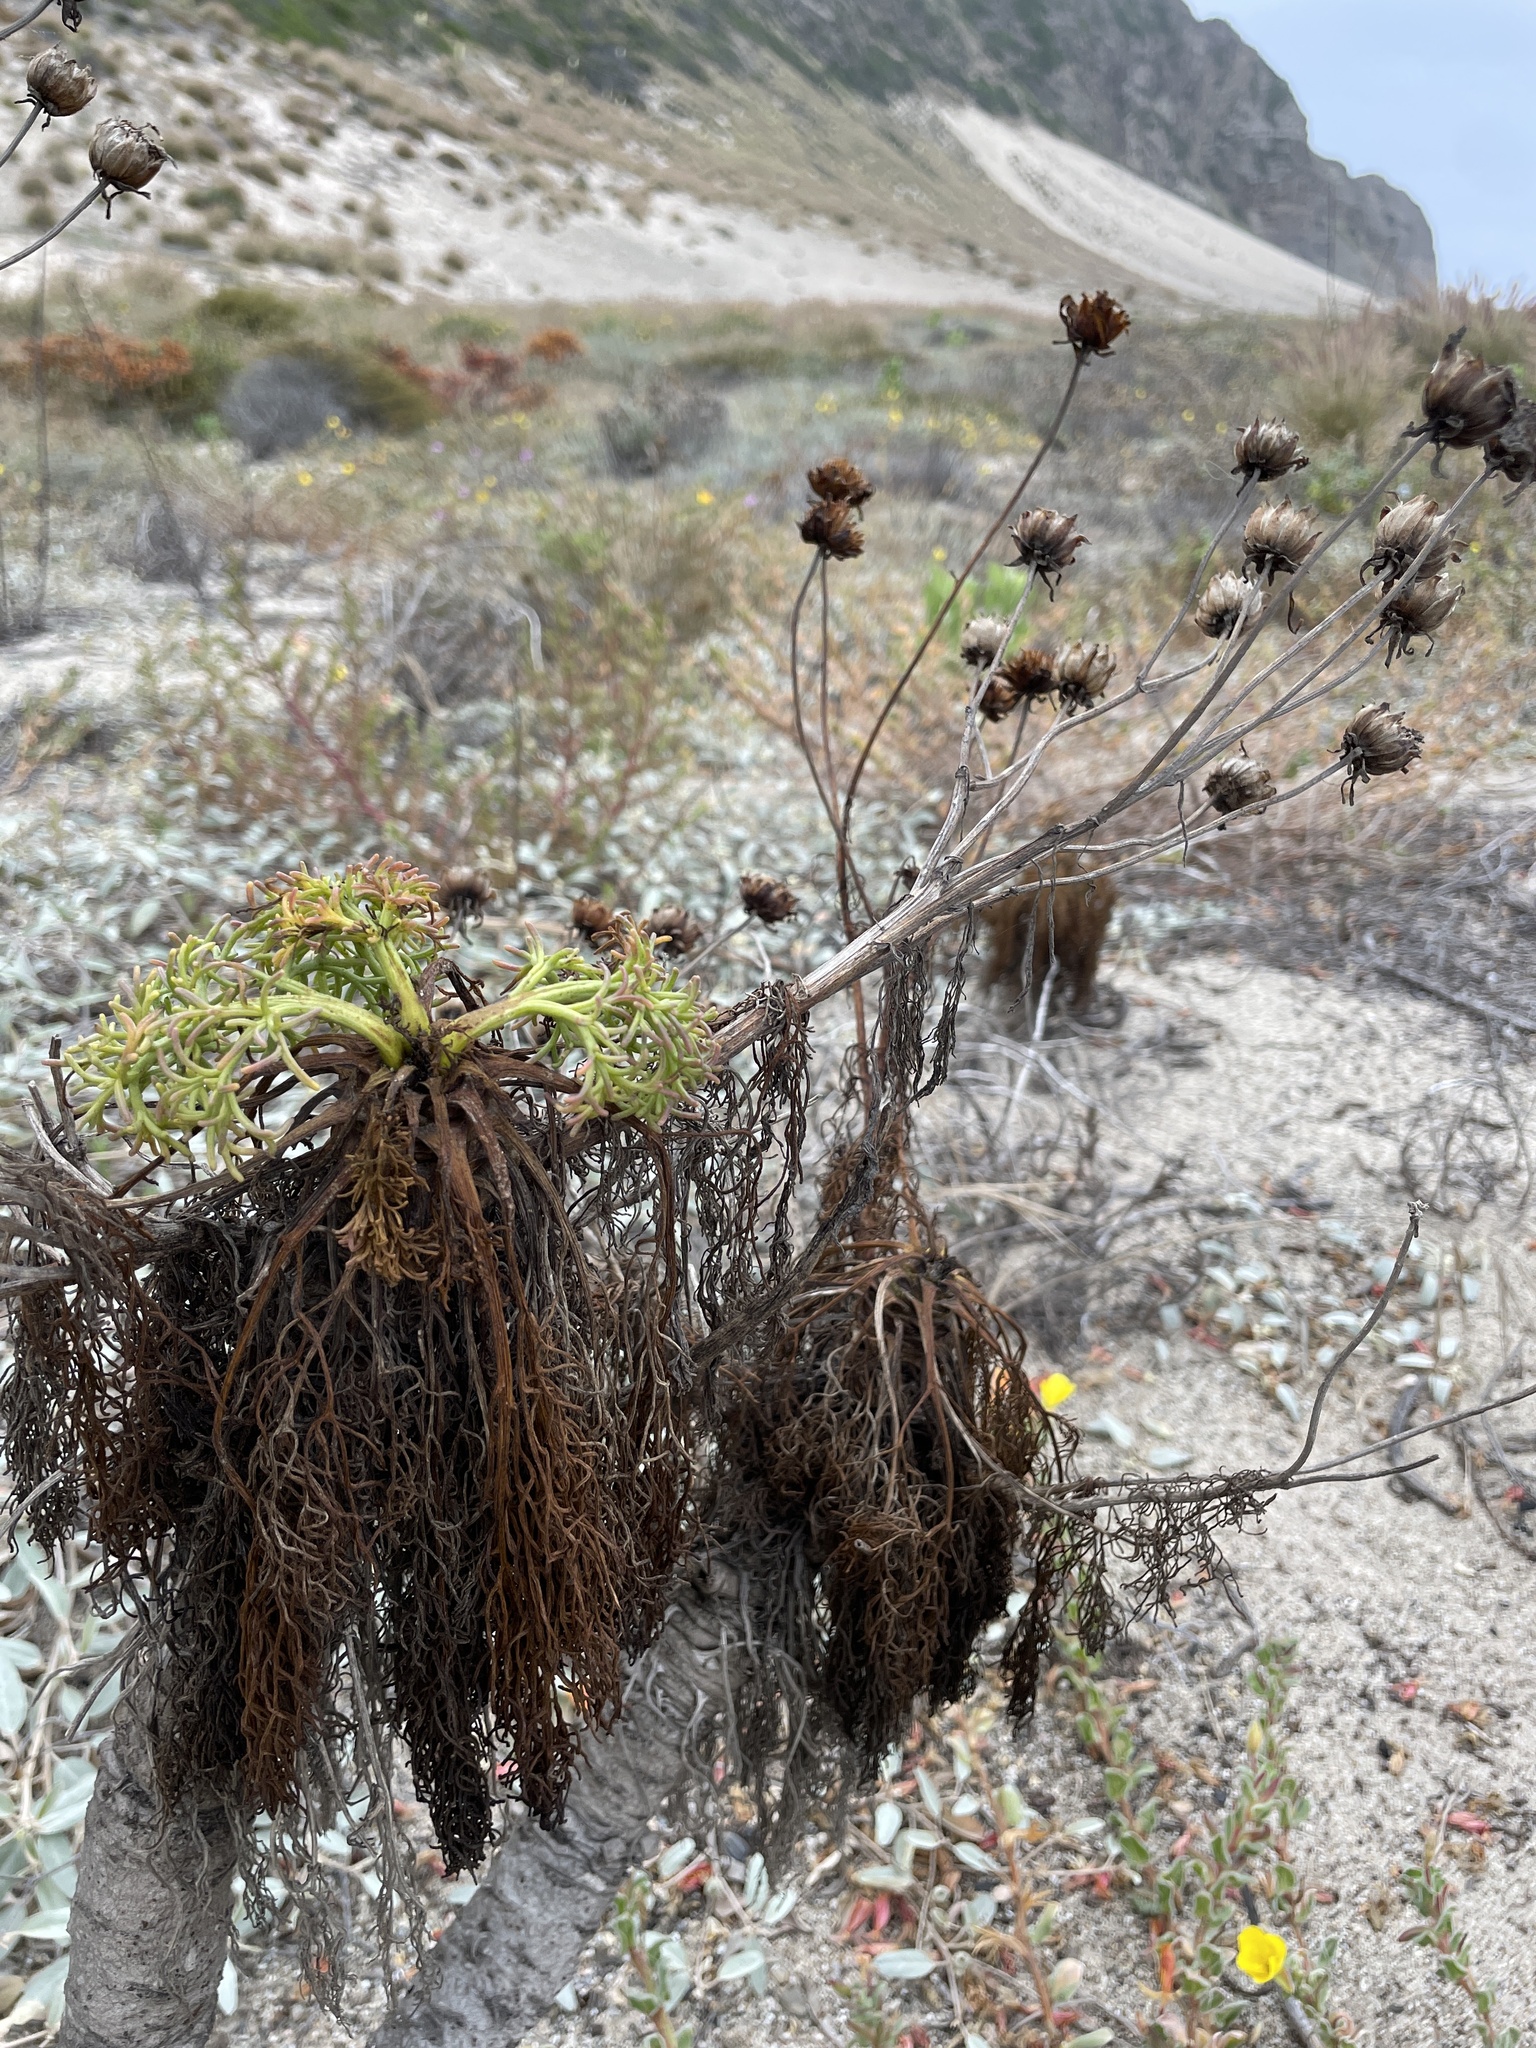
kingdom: Plantae
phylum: Tracheophyta
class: Magnoliopsida
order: Asterales
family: Asteraceae
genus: Coreopsis
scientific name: Coreopsis gigantea
